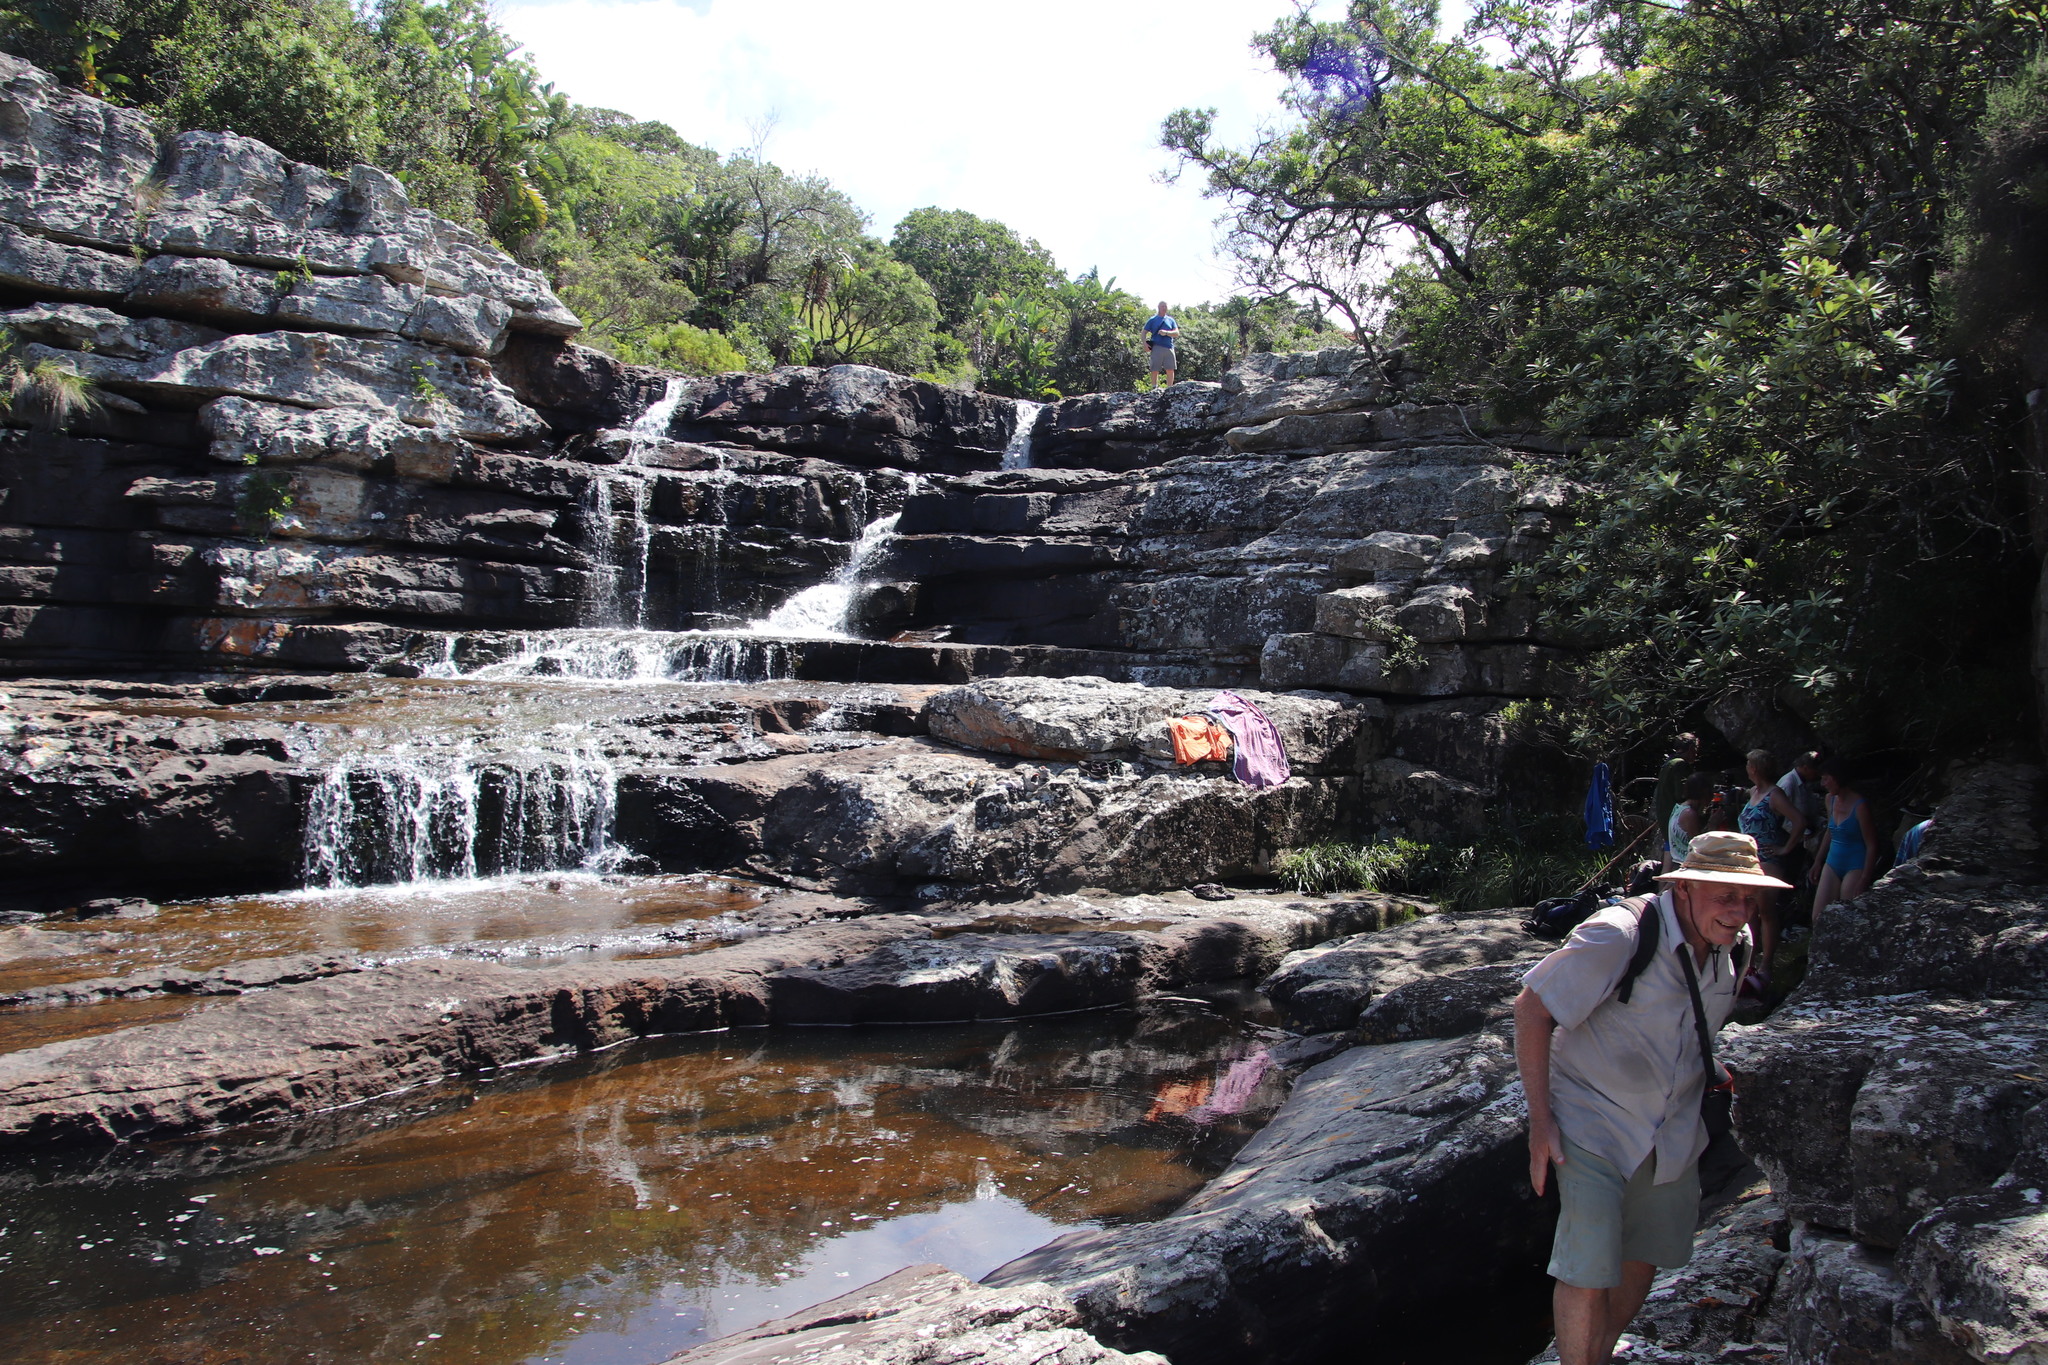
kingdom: Plantae
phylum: Tracheophyta
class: Magnoliopsida
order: Asterales
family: Asteraceae
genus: Tarchonanthus
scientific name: Tarchonanthus trilobus
